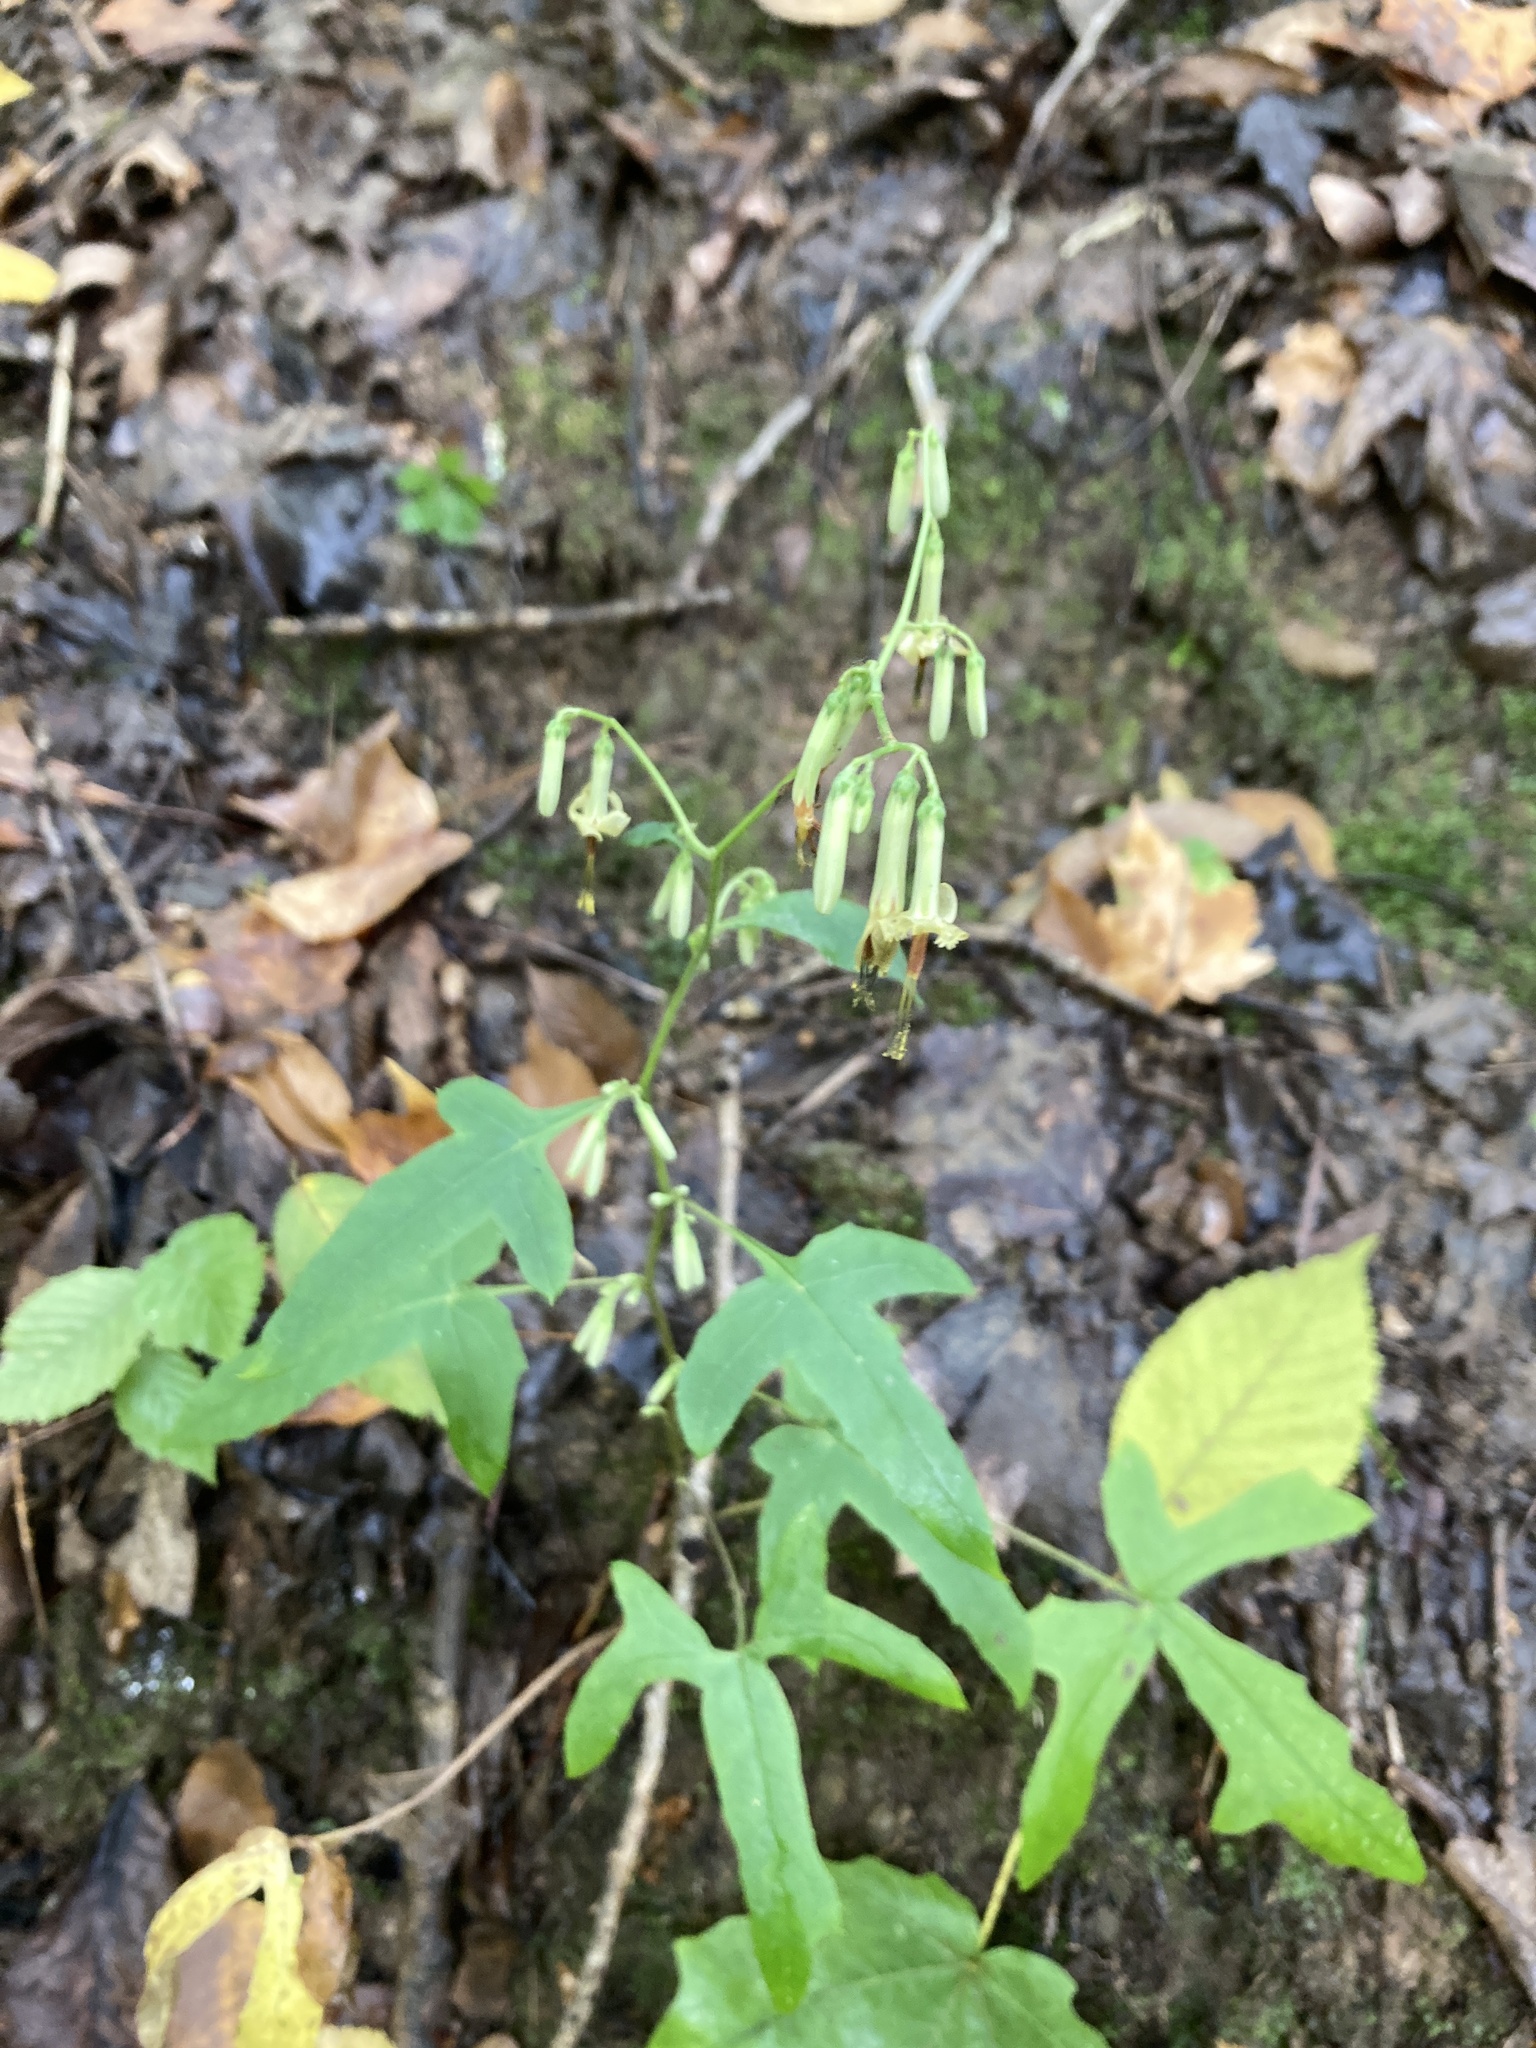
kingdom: Plantae
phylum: Tracheophyta
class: Magnoliopsida
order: Asterales
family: Asteraceae
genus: Nabalus
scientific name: Nabalus altissima
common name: Tall rattlesnakeroot
